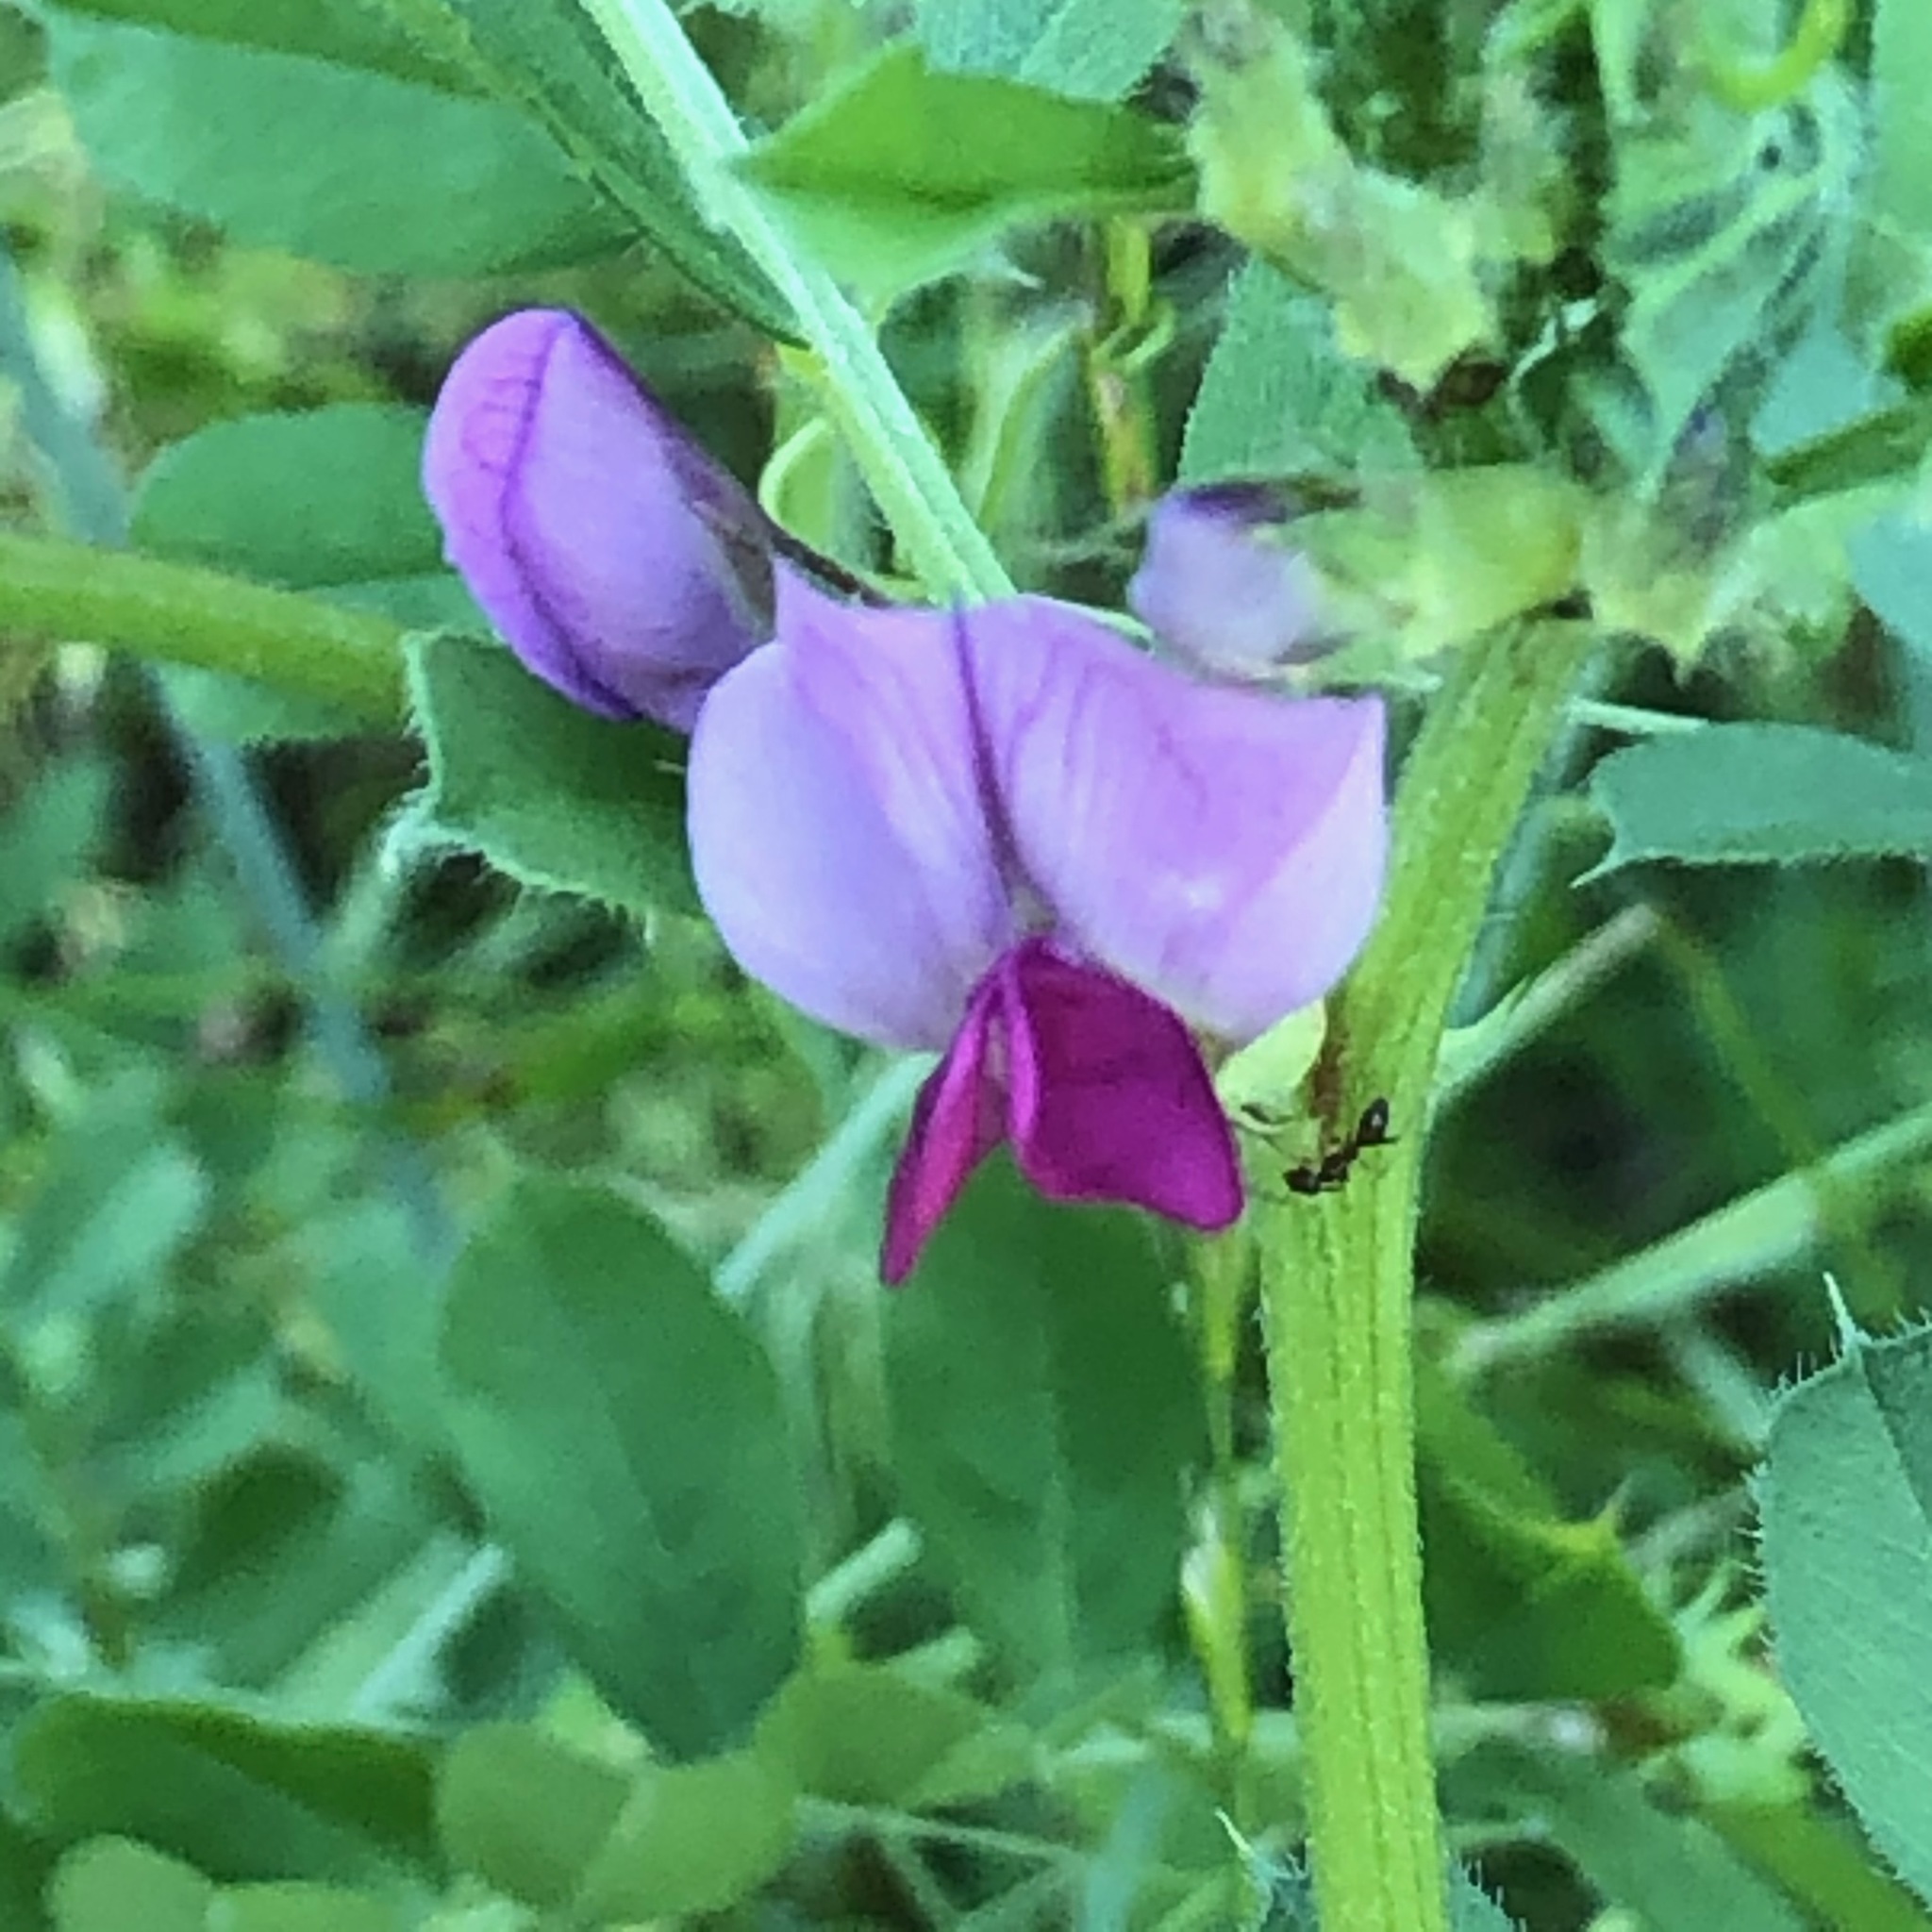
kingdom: Plantae
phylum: Tracheophyta
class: Magnoliopsida
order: Fabales
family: Fabaceae
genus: Vicia
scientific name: Vicia sativa
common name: Garden vetch
